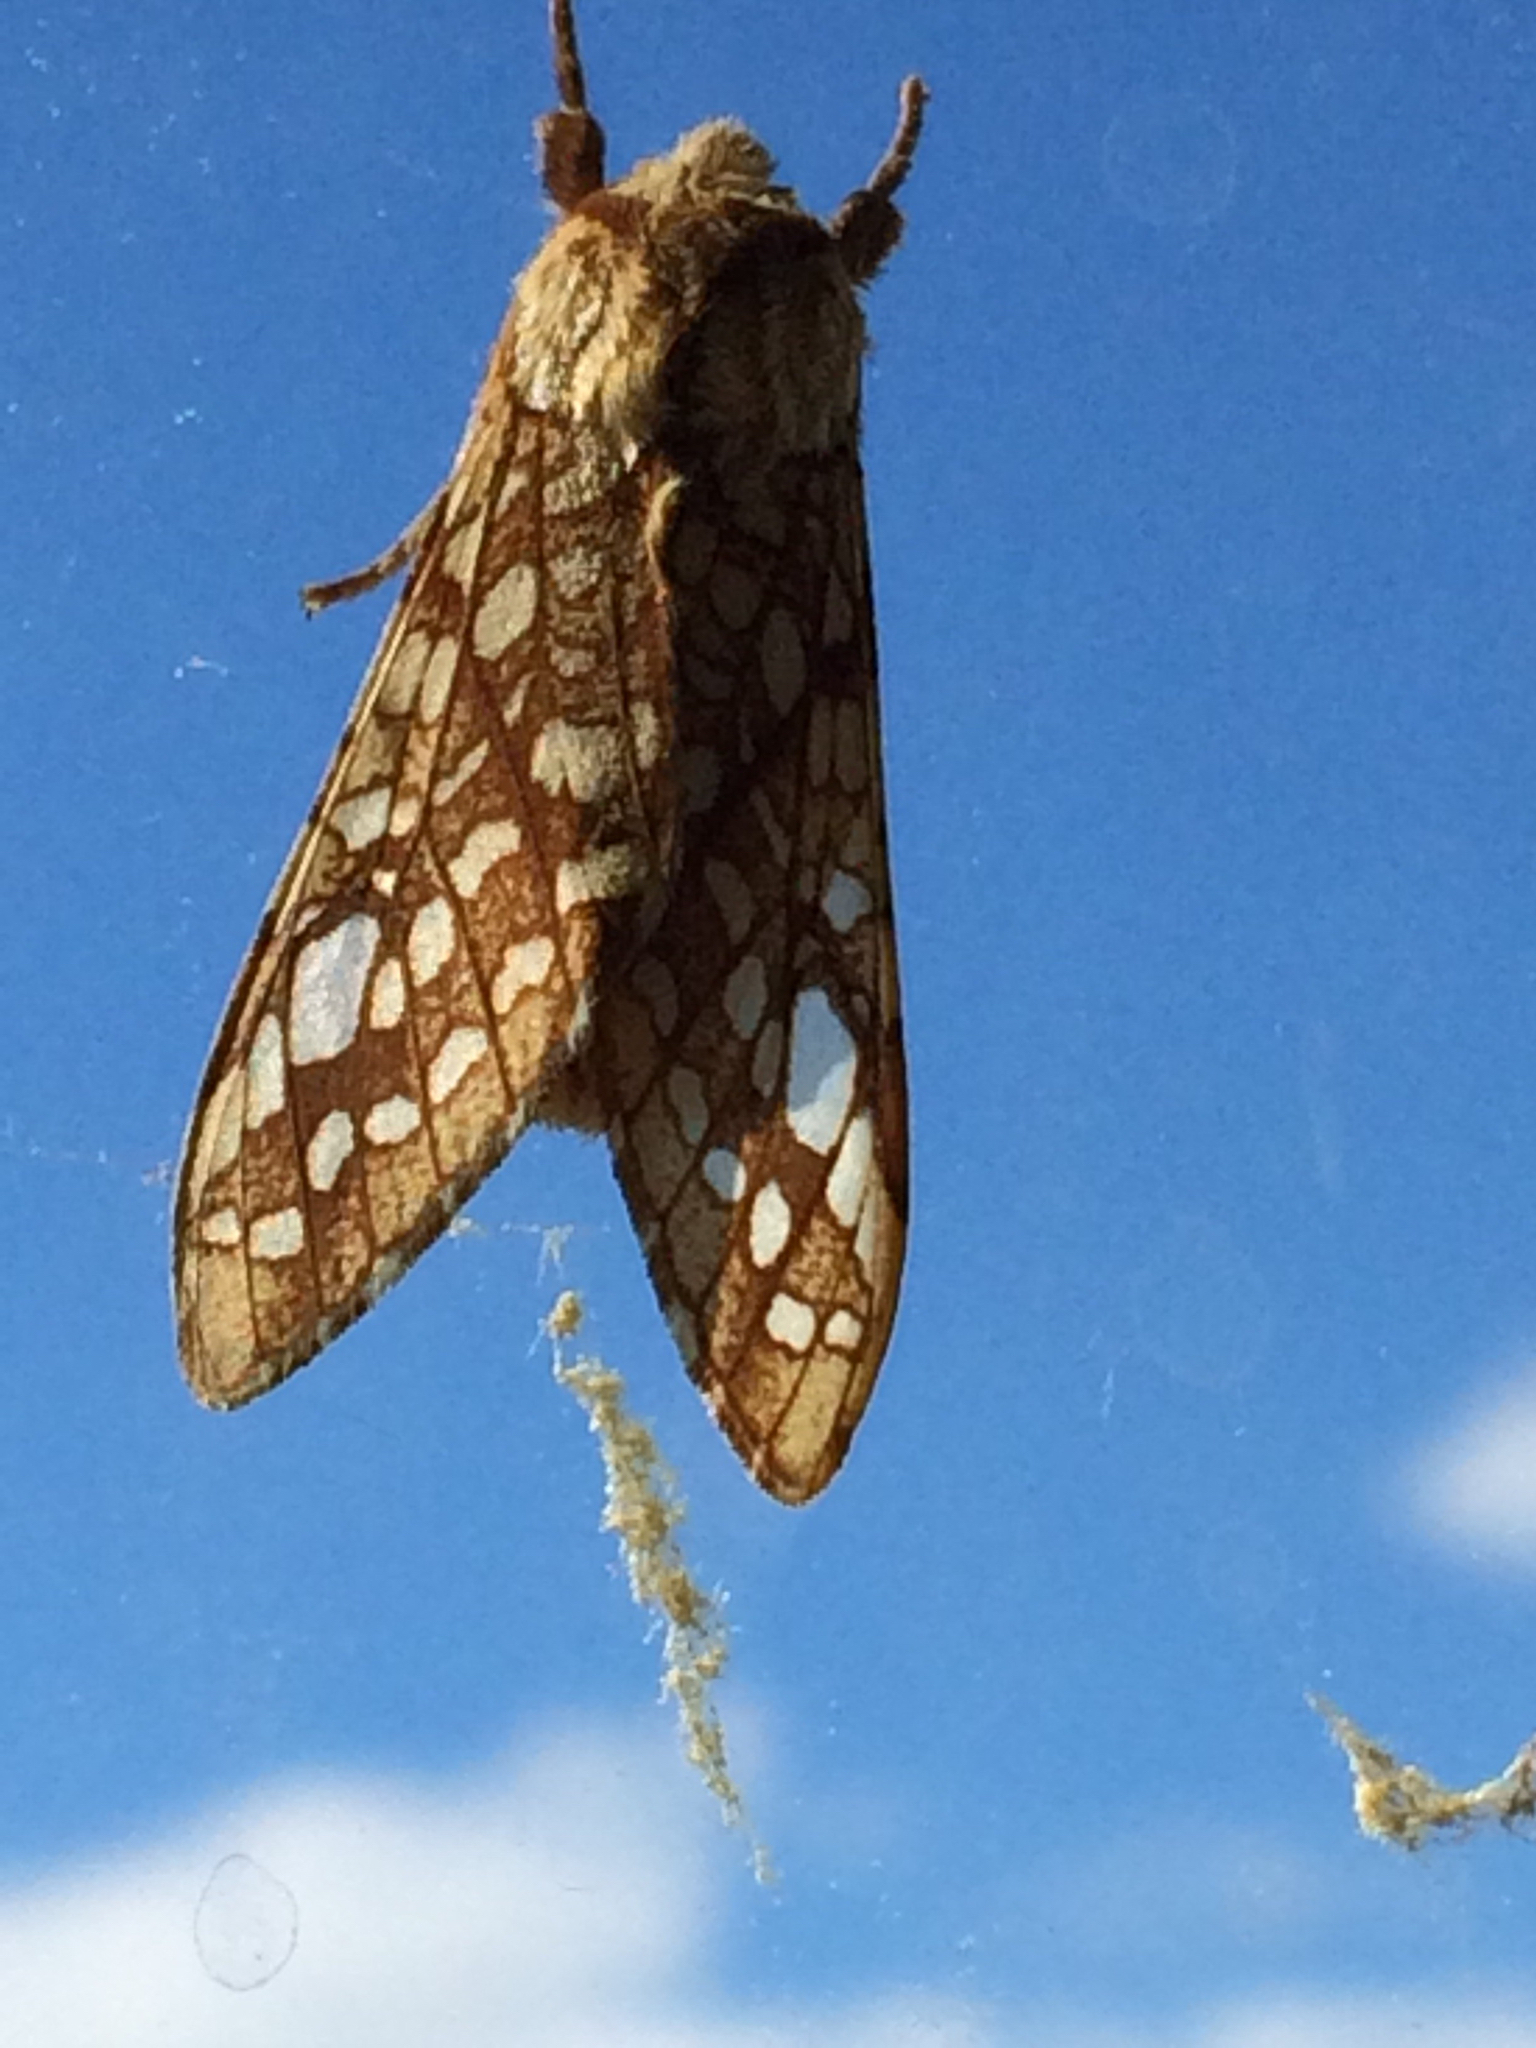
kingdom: Animalia
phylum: Arthropoda
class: Insecta
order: Lepidoptera
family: Erebidae
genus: Lophocampa
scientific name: Lophocampa caryae
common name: Hickory tussock moth
